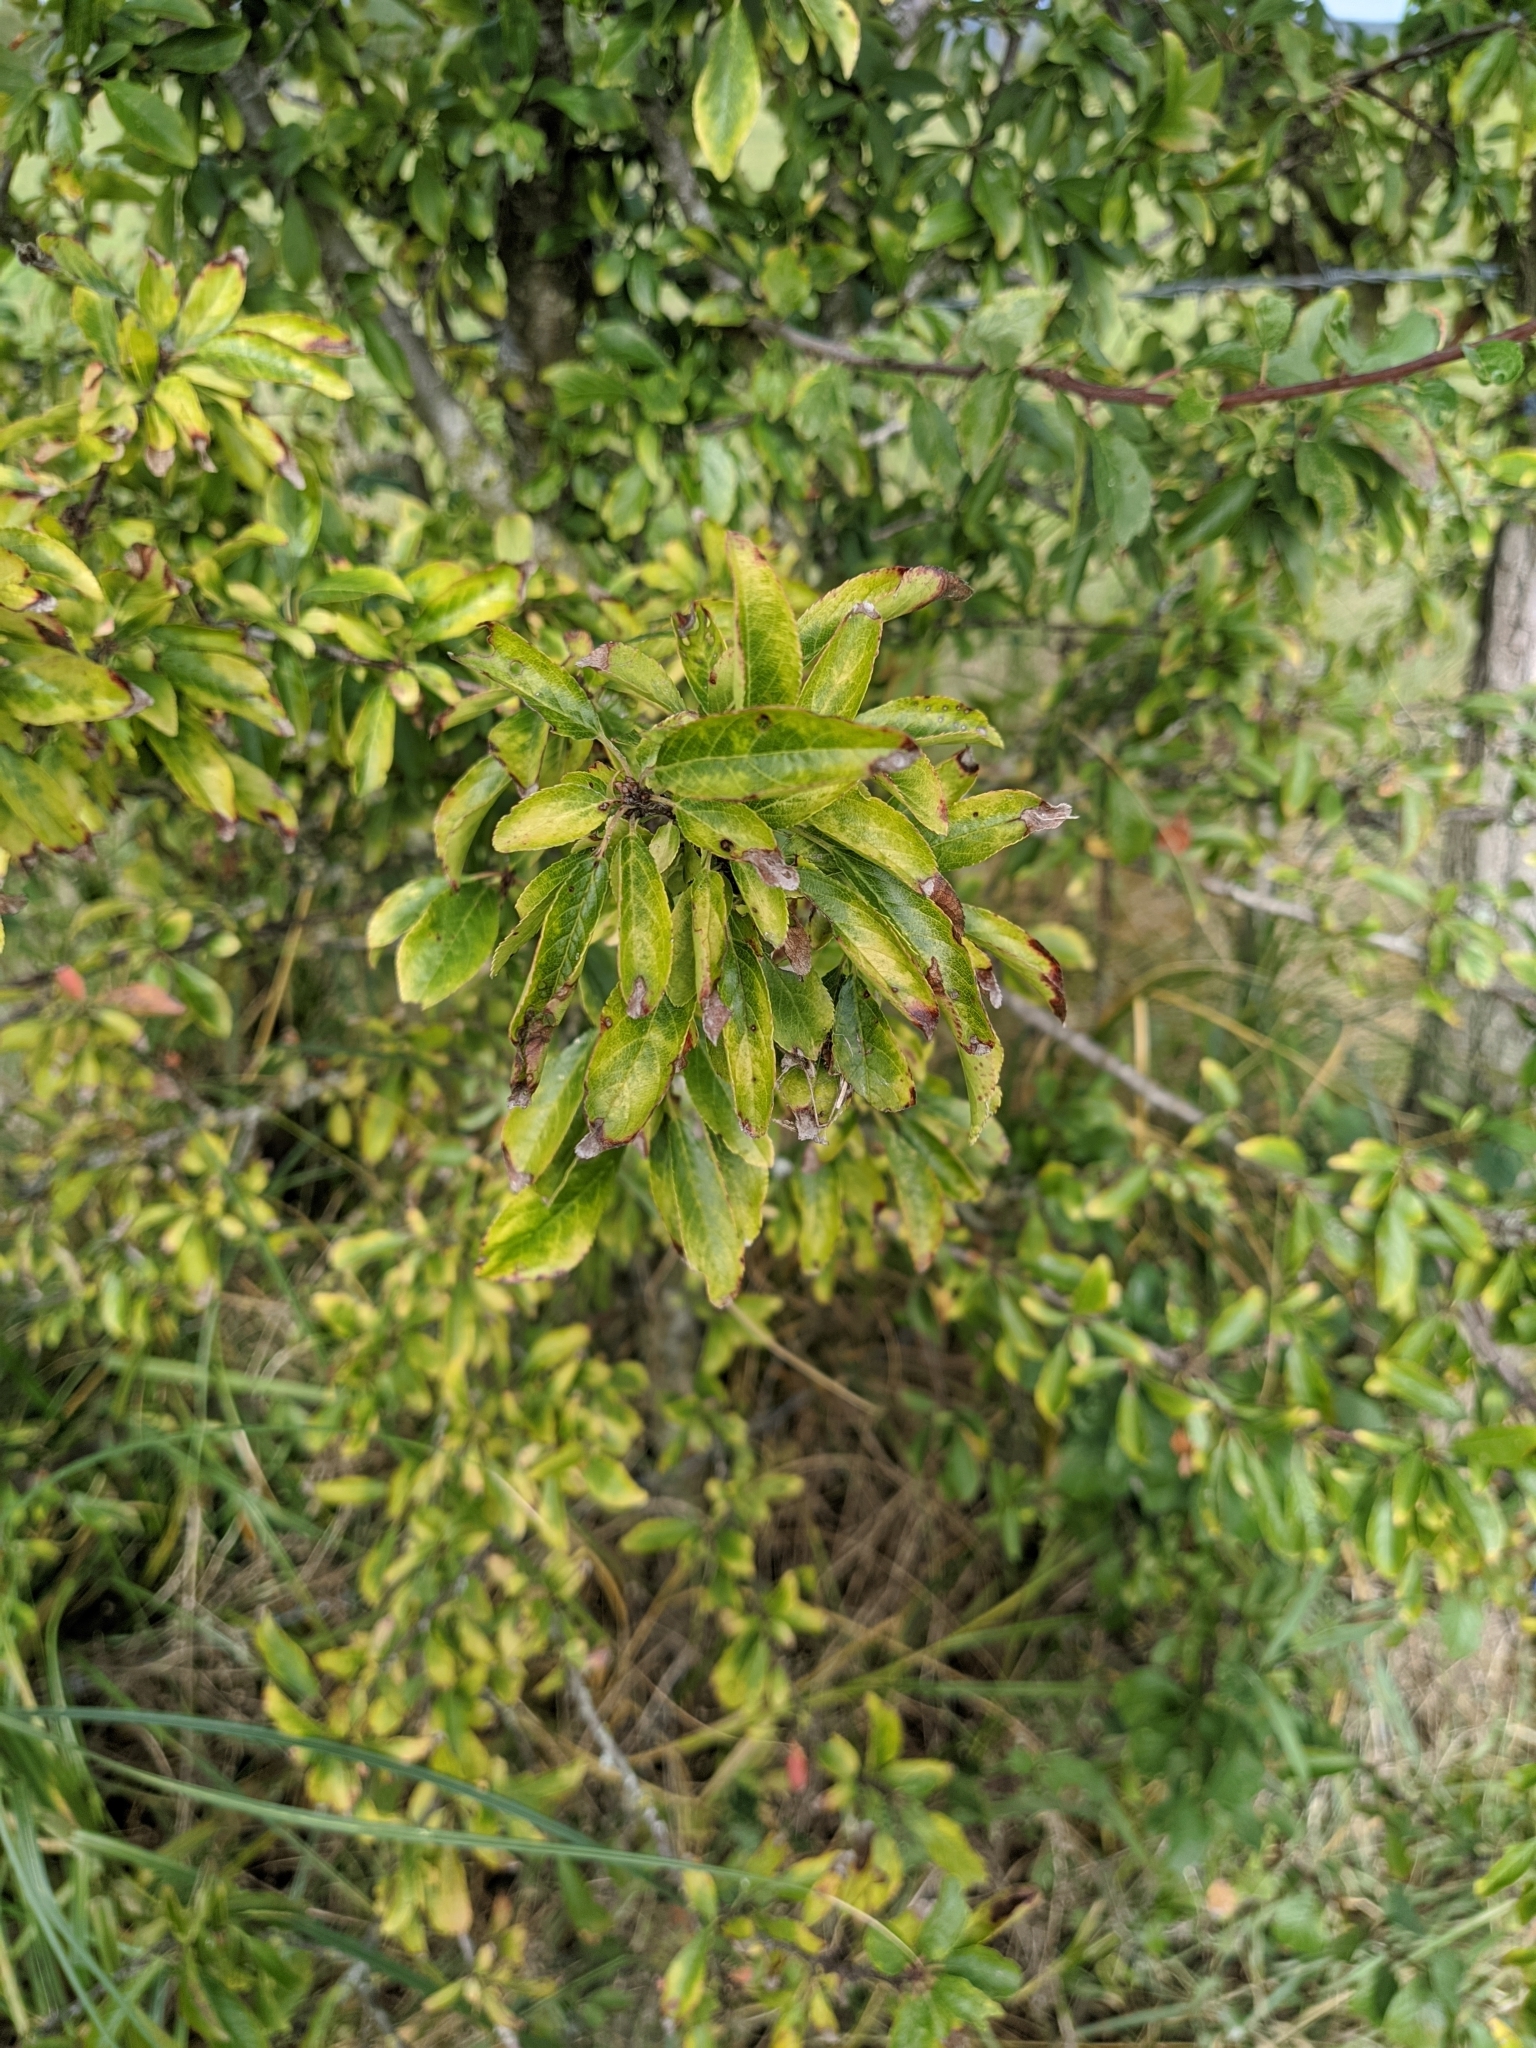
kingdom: Plantae
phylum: Tracheophyta
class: Magnoliopsida
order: Rosales
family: Rosaceae
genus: Prunus
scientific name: Prunus spinosa
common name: Blackthorn
